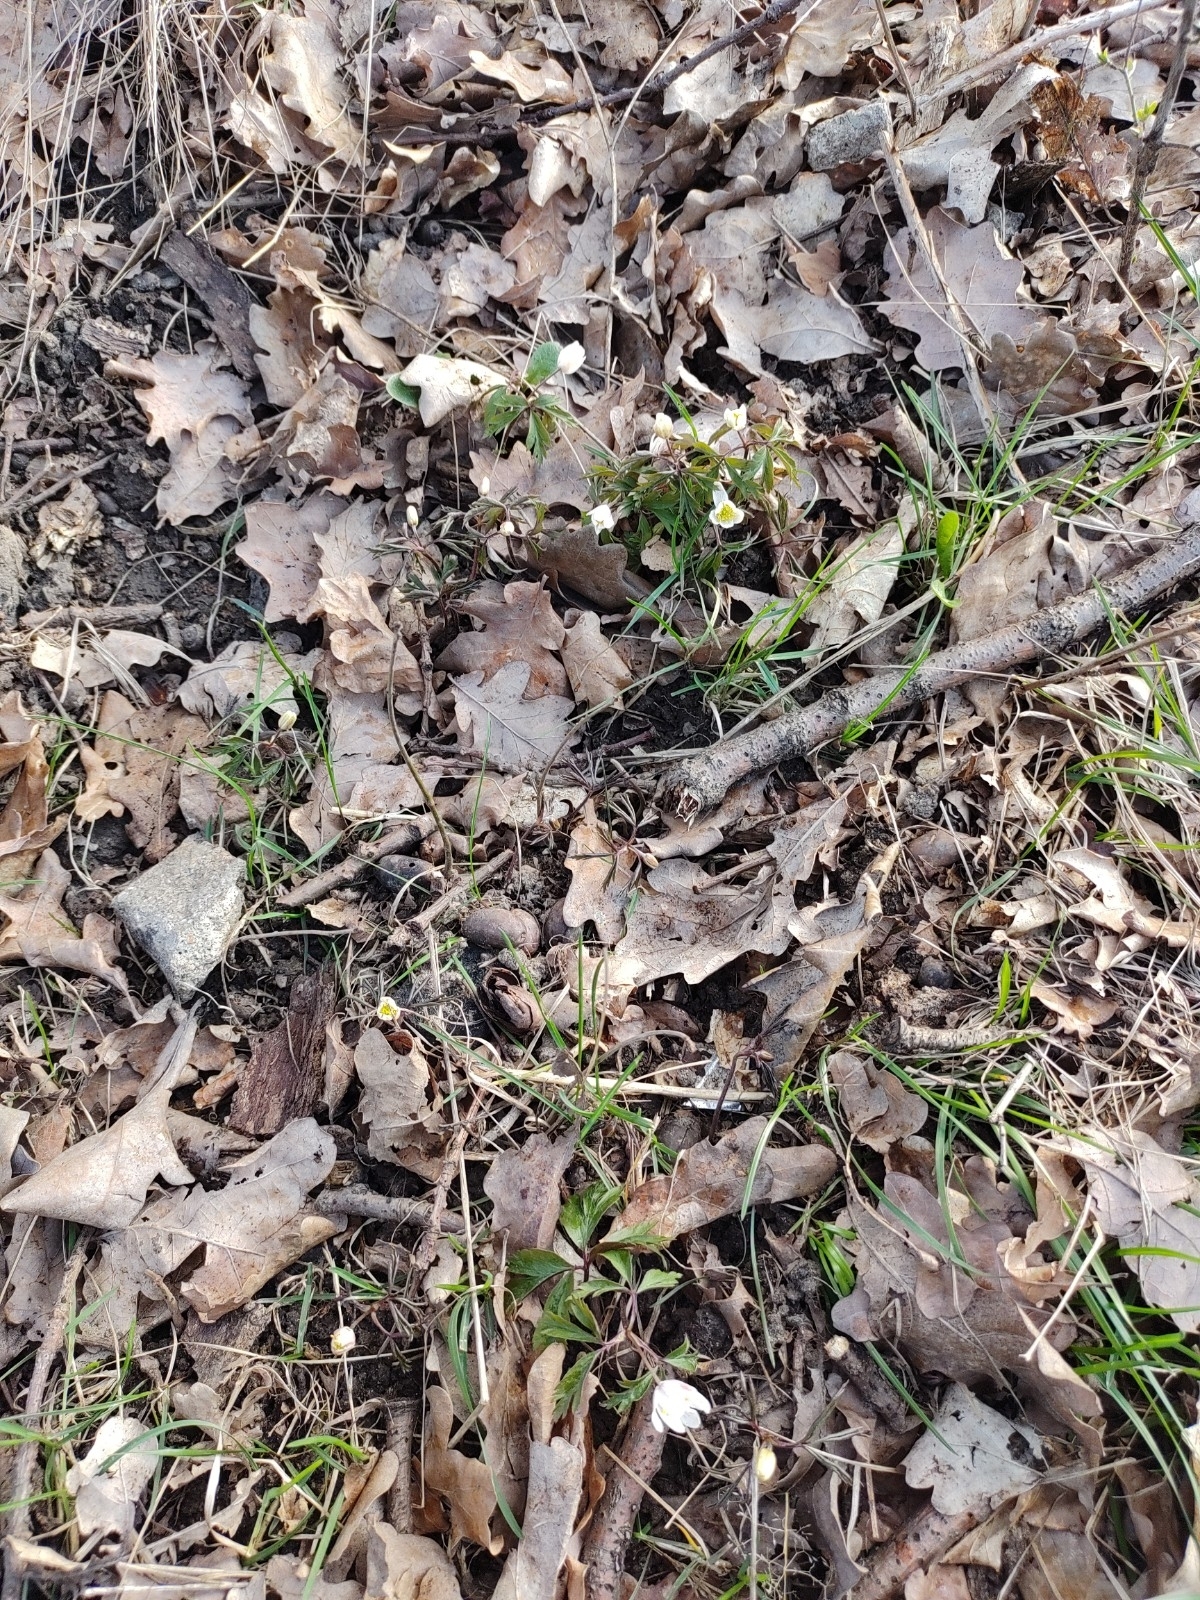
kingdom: Plantae
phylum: Tracheophyta
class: Magnoliopsida
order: Ranunculales
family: Ranunculaceae
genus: Anemone
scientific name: Anemone nemorosa
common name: Wood anemone
